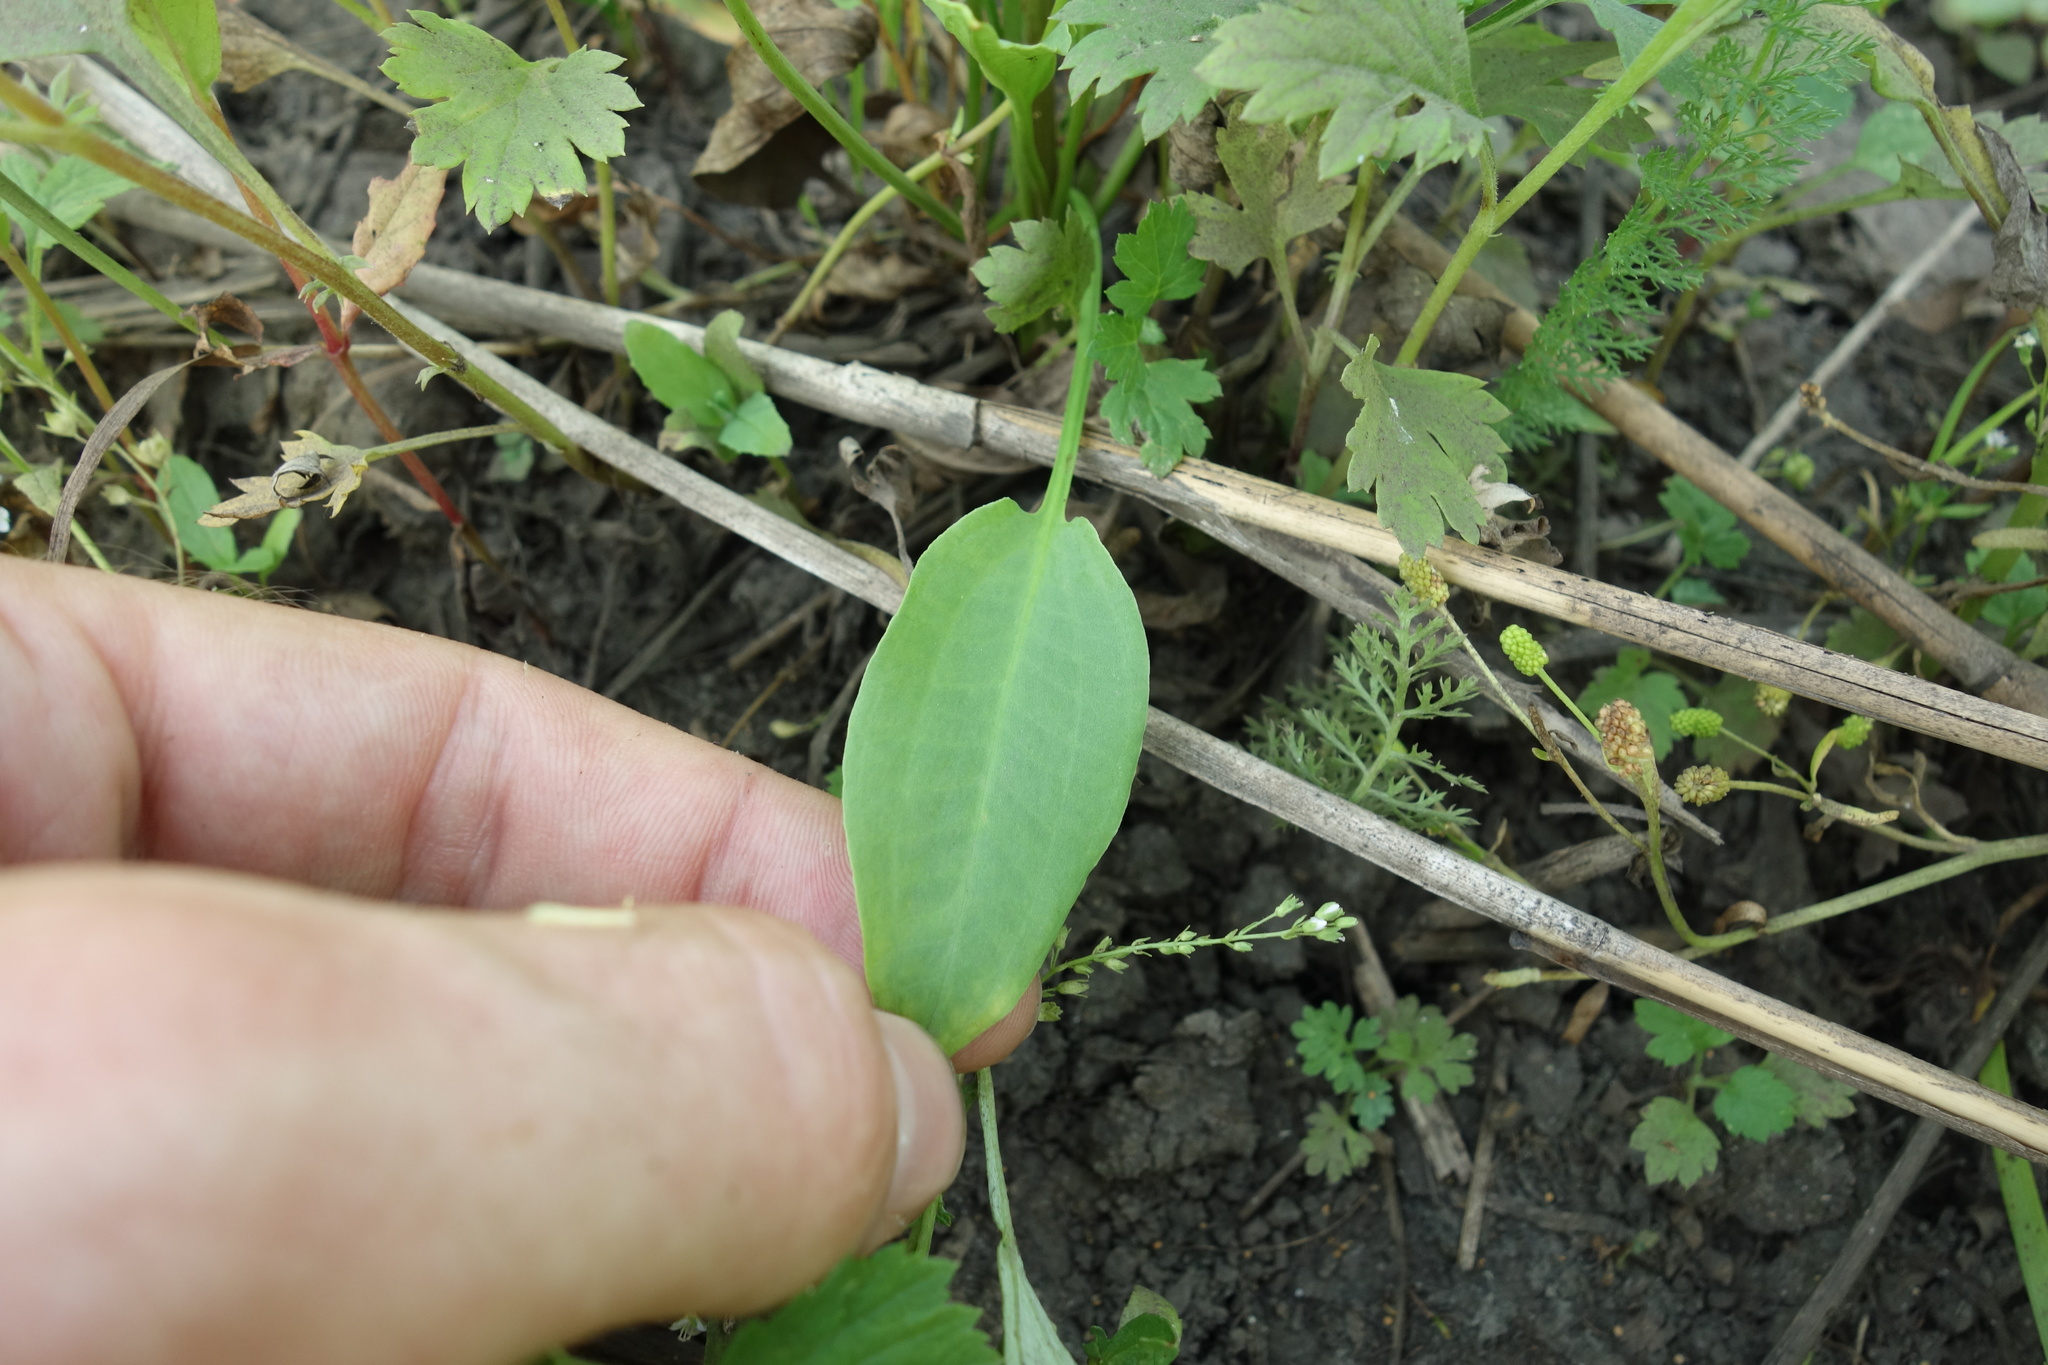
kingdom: Plantae
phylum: Tracheophyta
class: Liliopsida
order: Alismatales
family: Alismataceae
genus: Alisma
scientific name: Alisma plantago-aquatica
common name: Water-plantain
